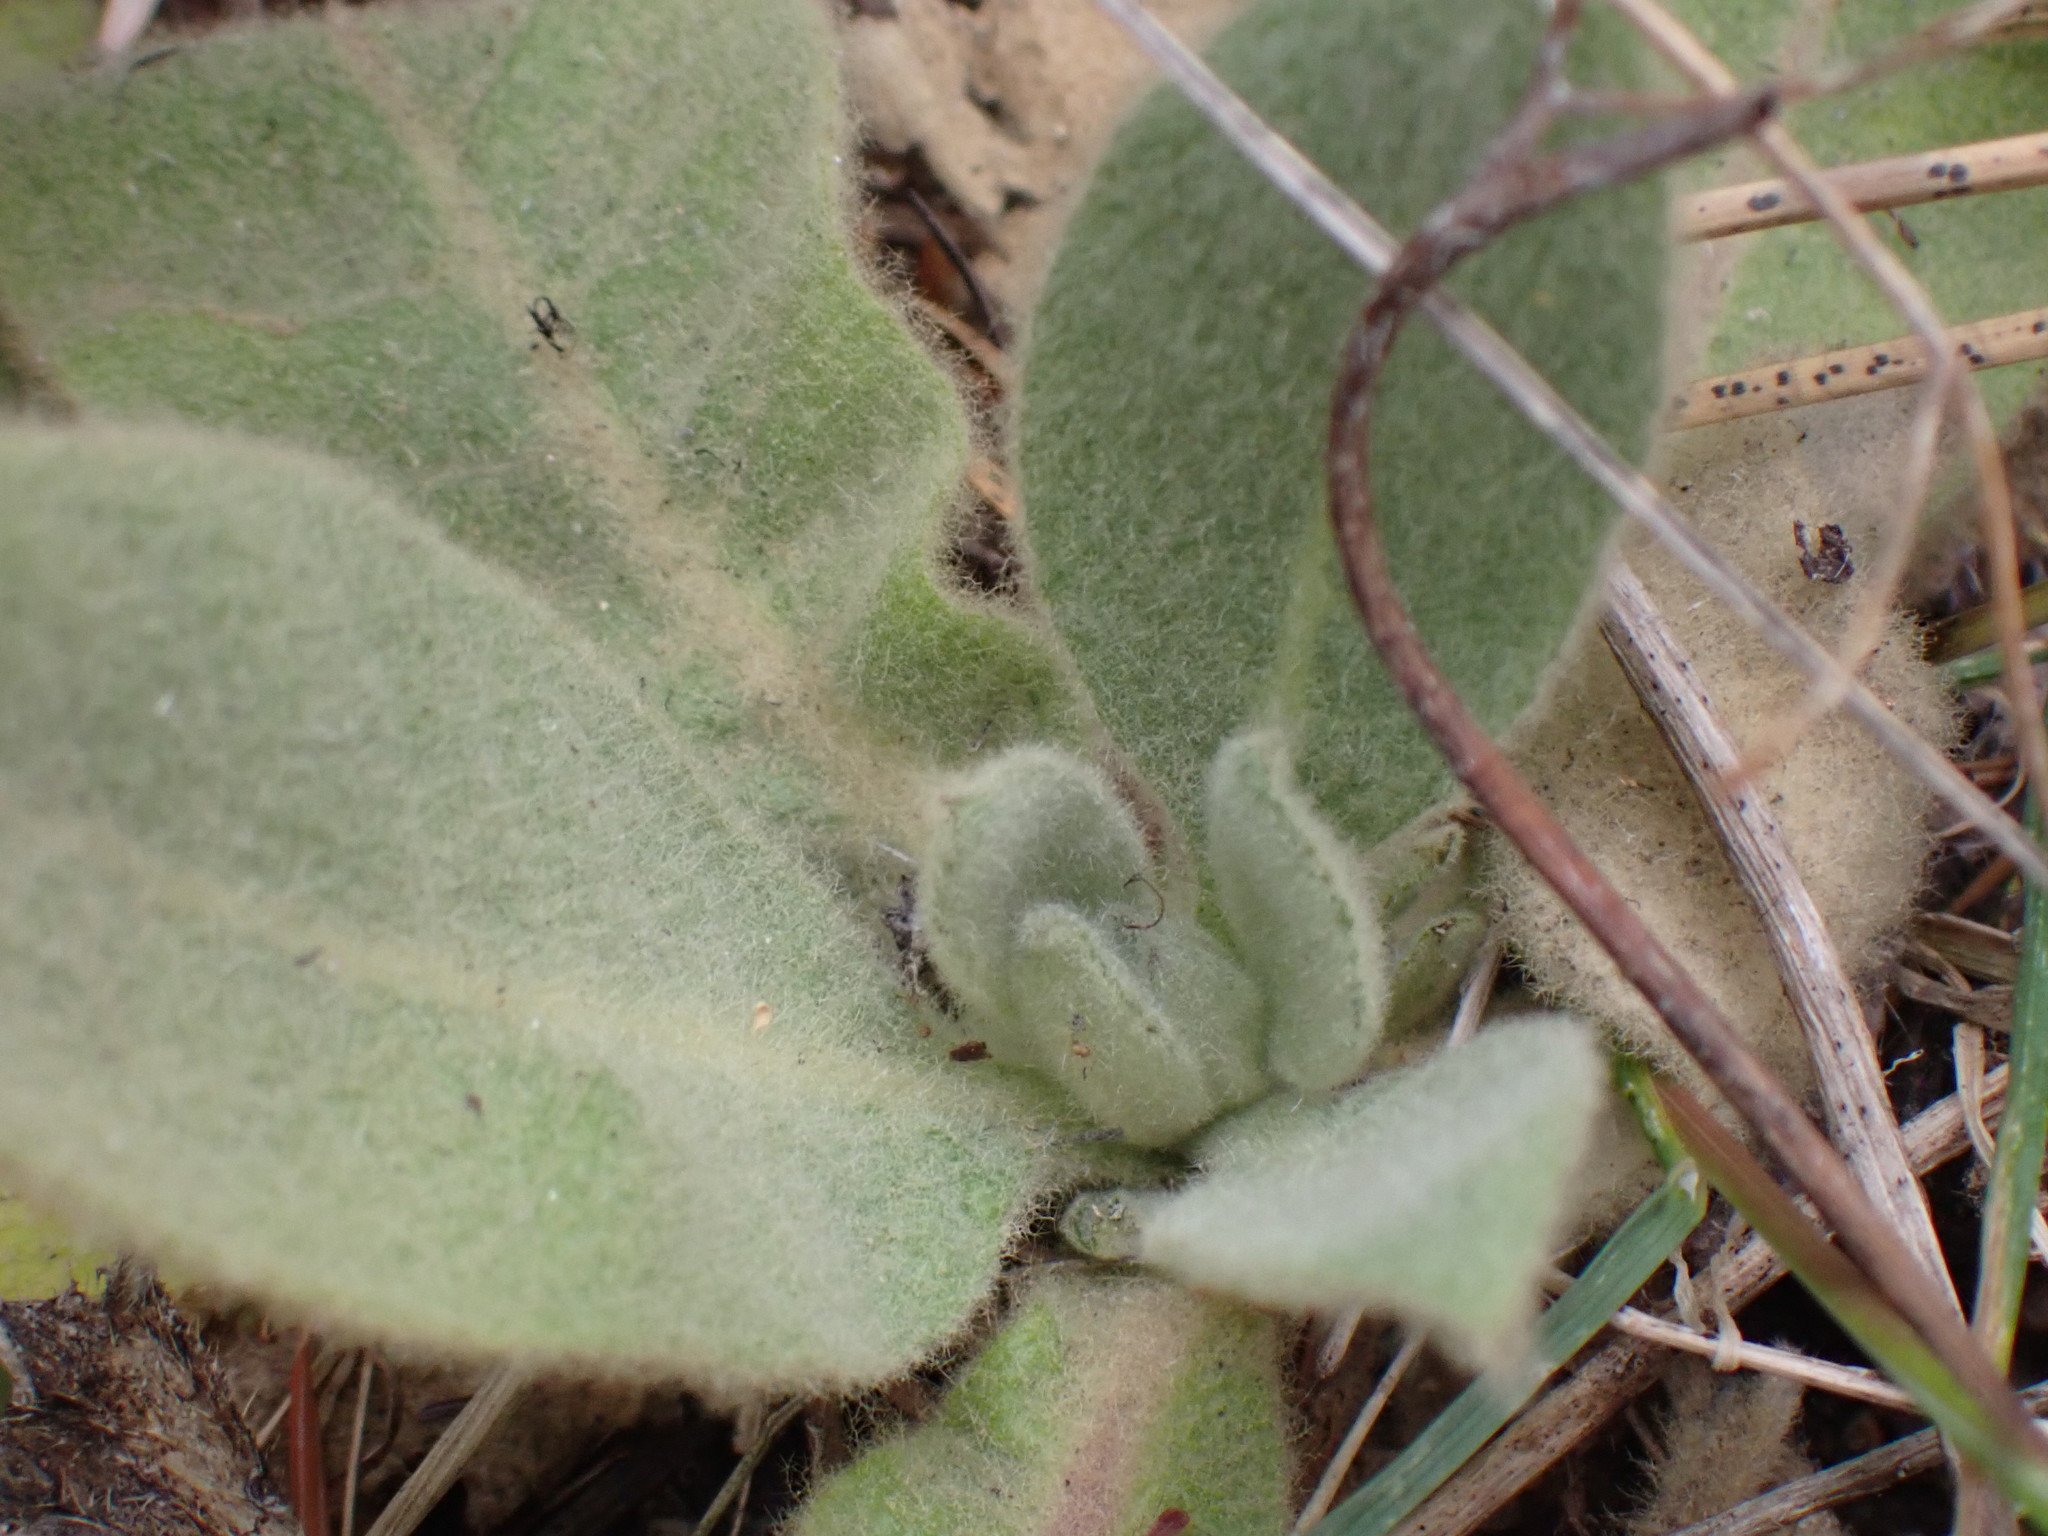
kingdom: Plantae
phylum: Tracheophyta
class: Magnoliopsida
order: Lamiales
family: Scrophulariaceae
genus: Verbascum
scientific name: Verbascum thapsus
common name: Common mullein
